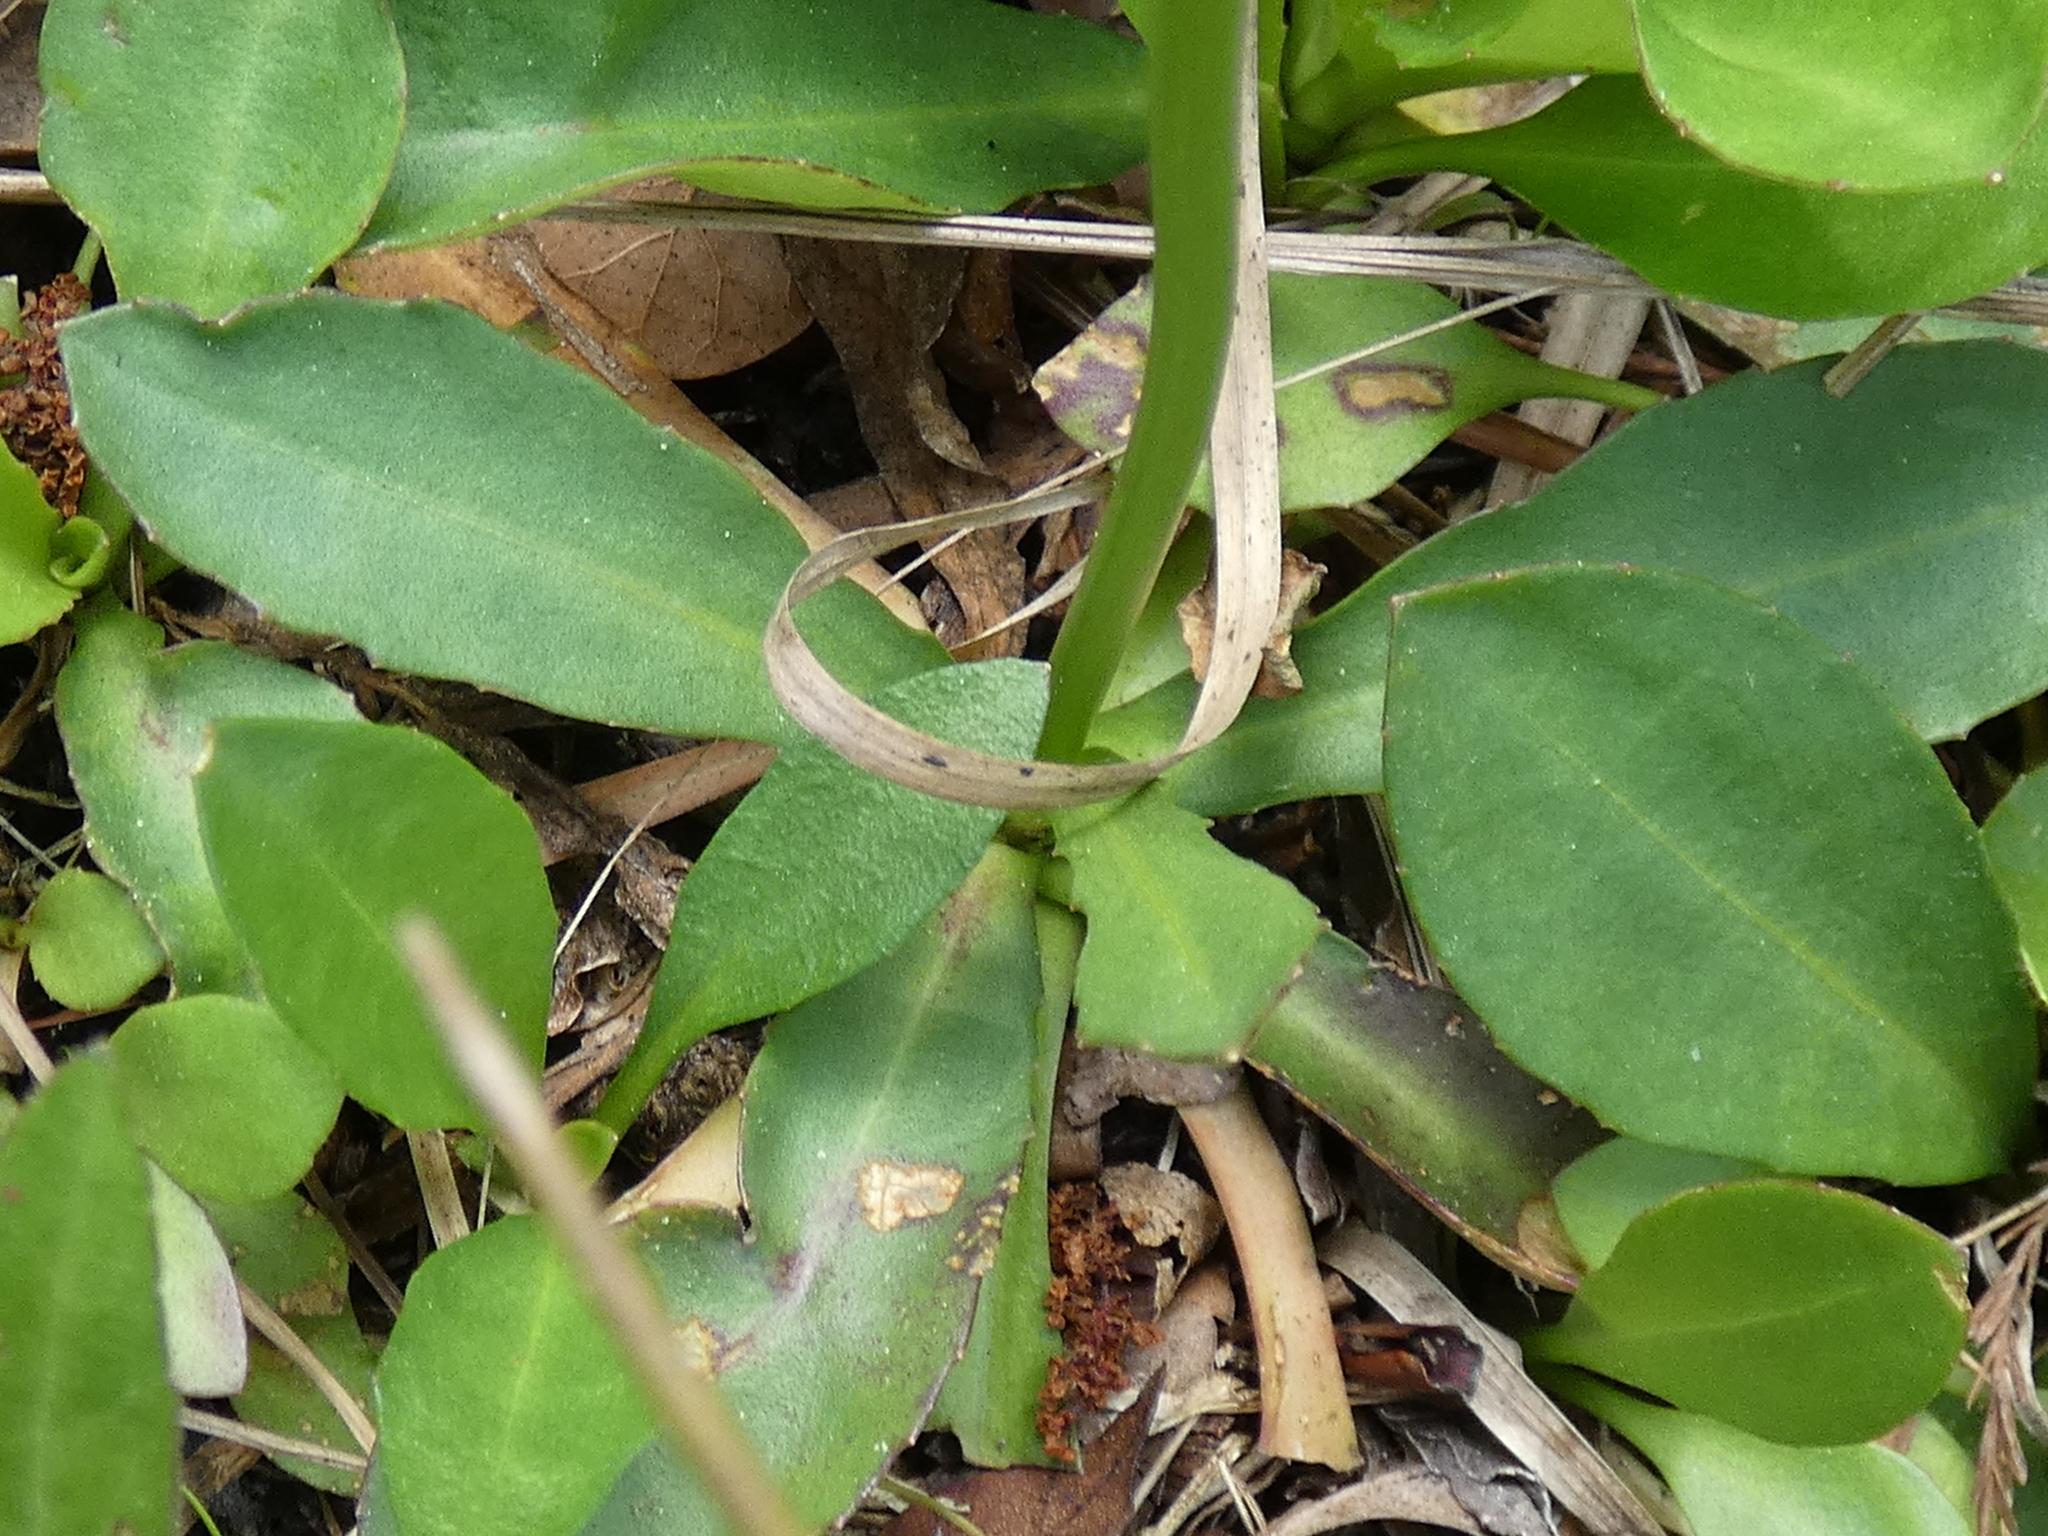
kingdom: Plantae
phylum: Tracheophyta
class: Magnoliopsida
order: Asterales
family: Asteraceae
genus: Erigeron
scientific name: Erigeron vernus
